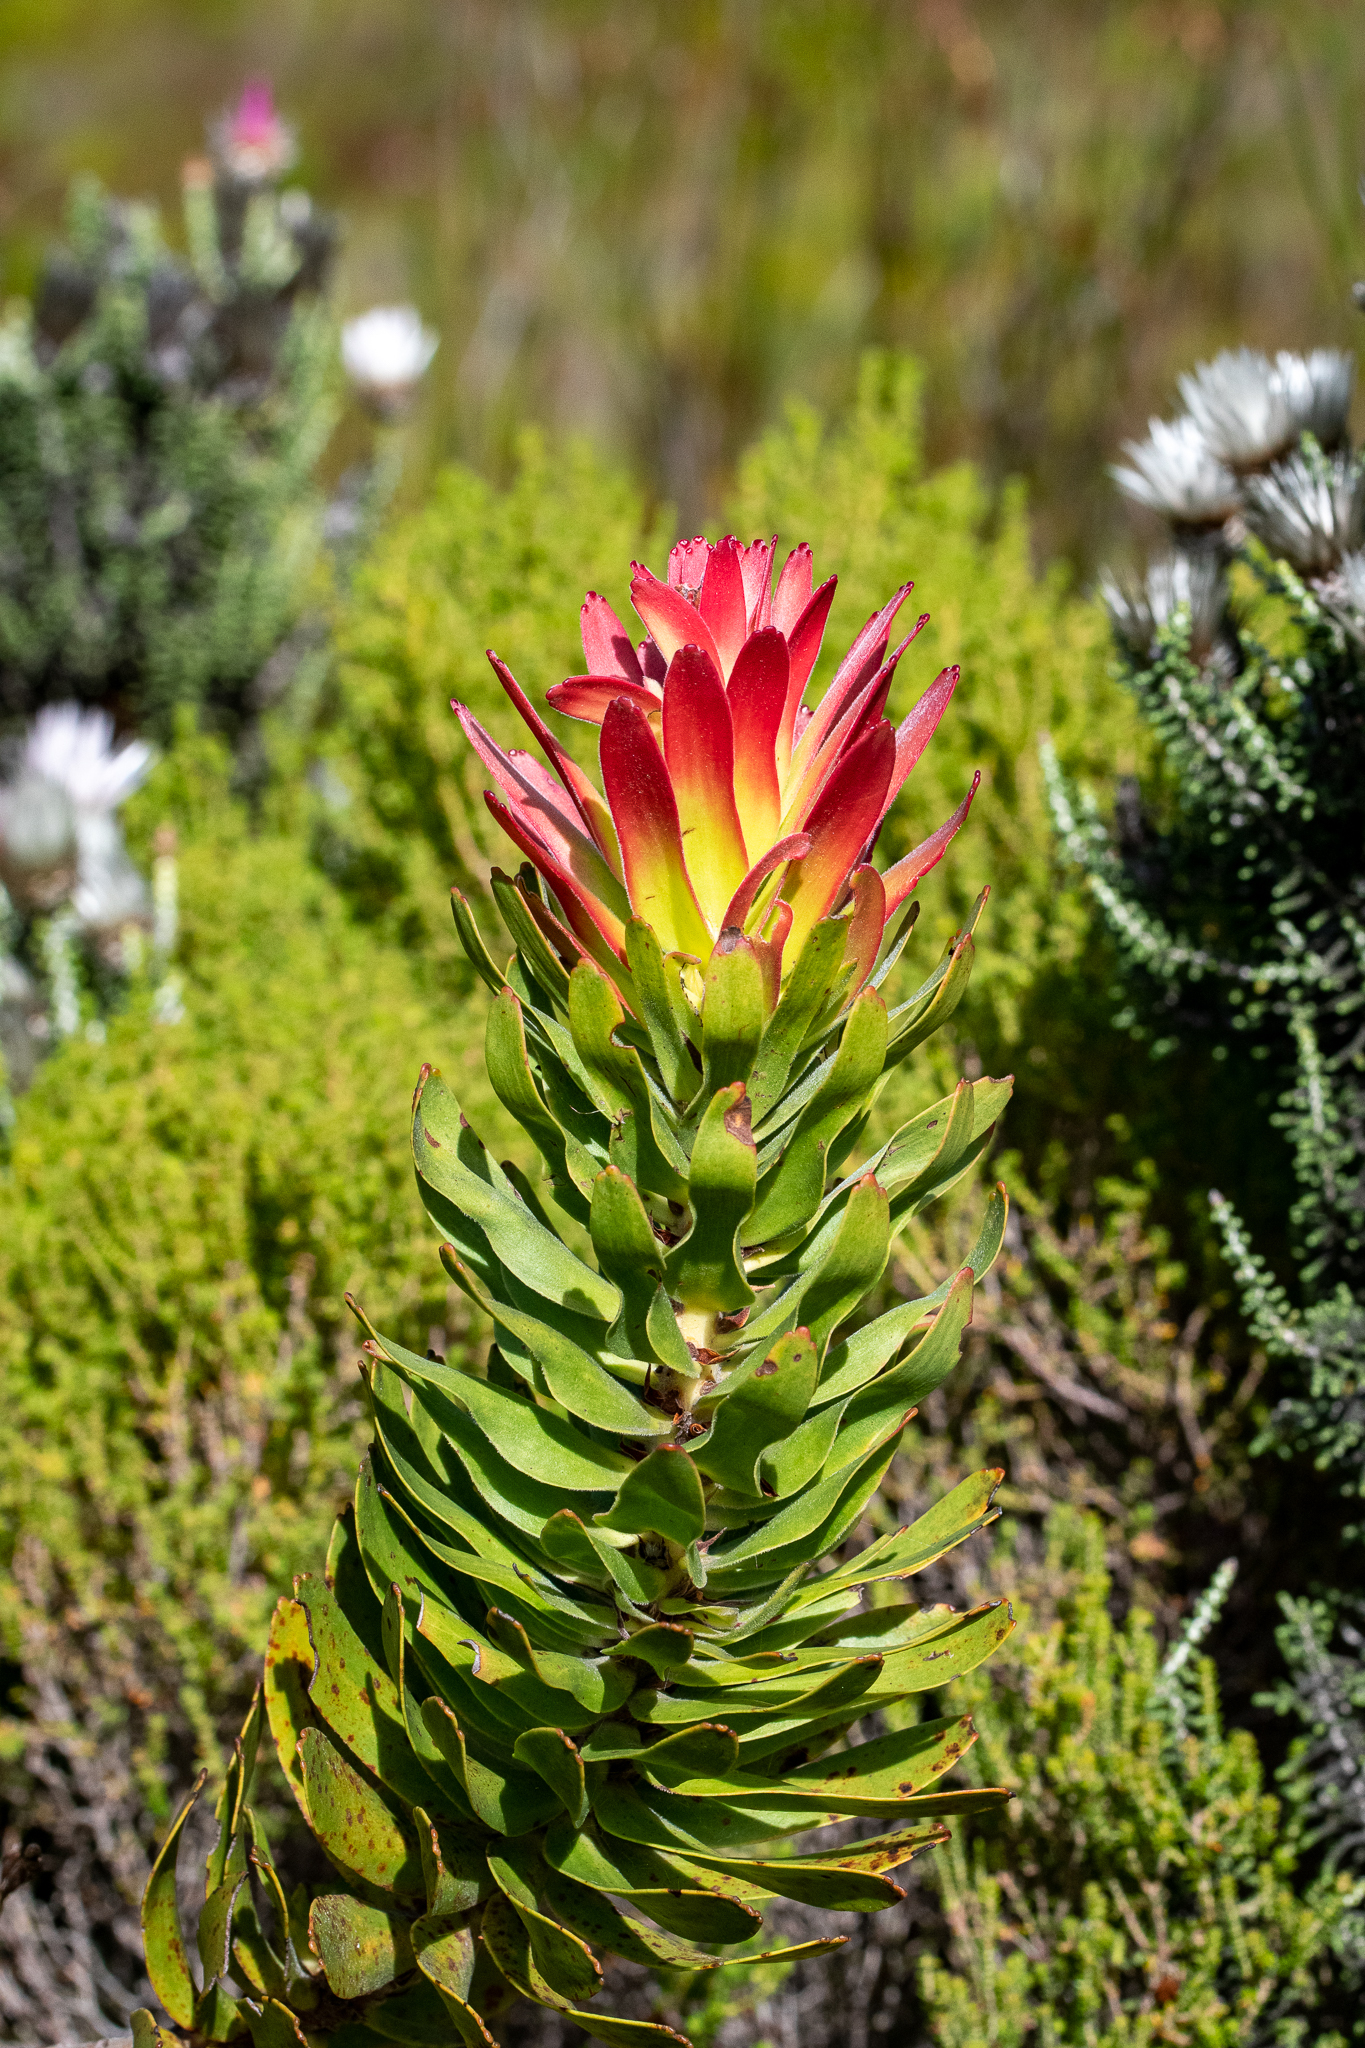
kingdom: Plantae
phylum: Tracheophyta
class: Magnoliopsida
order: Proteales
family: Proteaceae
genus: Mimetes
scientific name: Mimetes cucullatus
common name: Common pagoda
